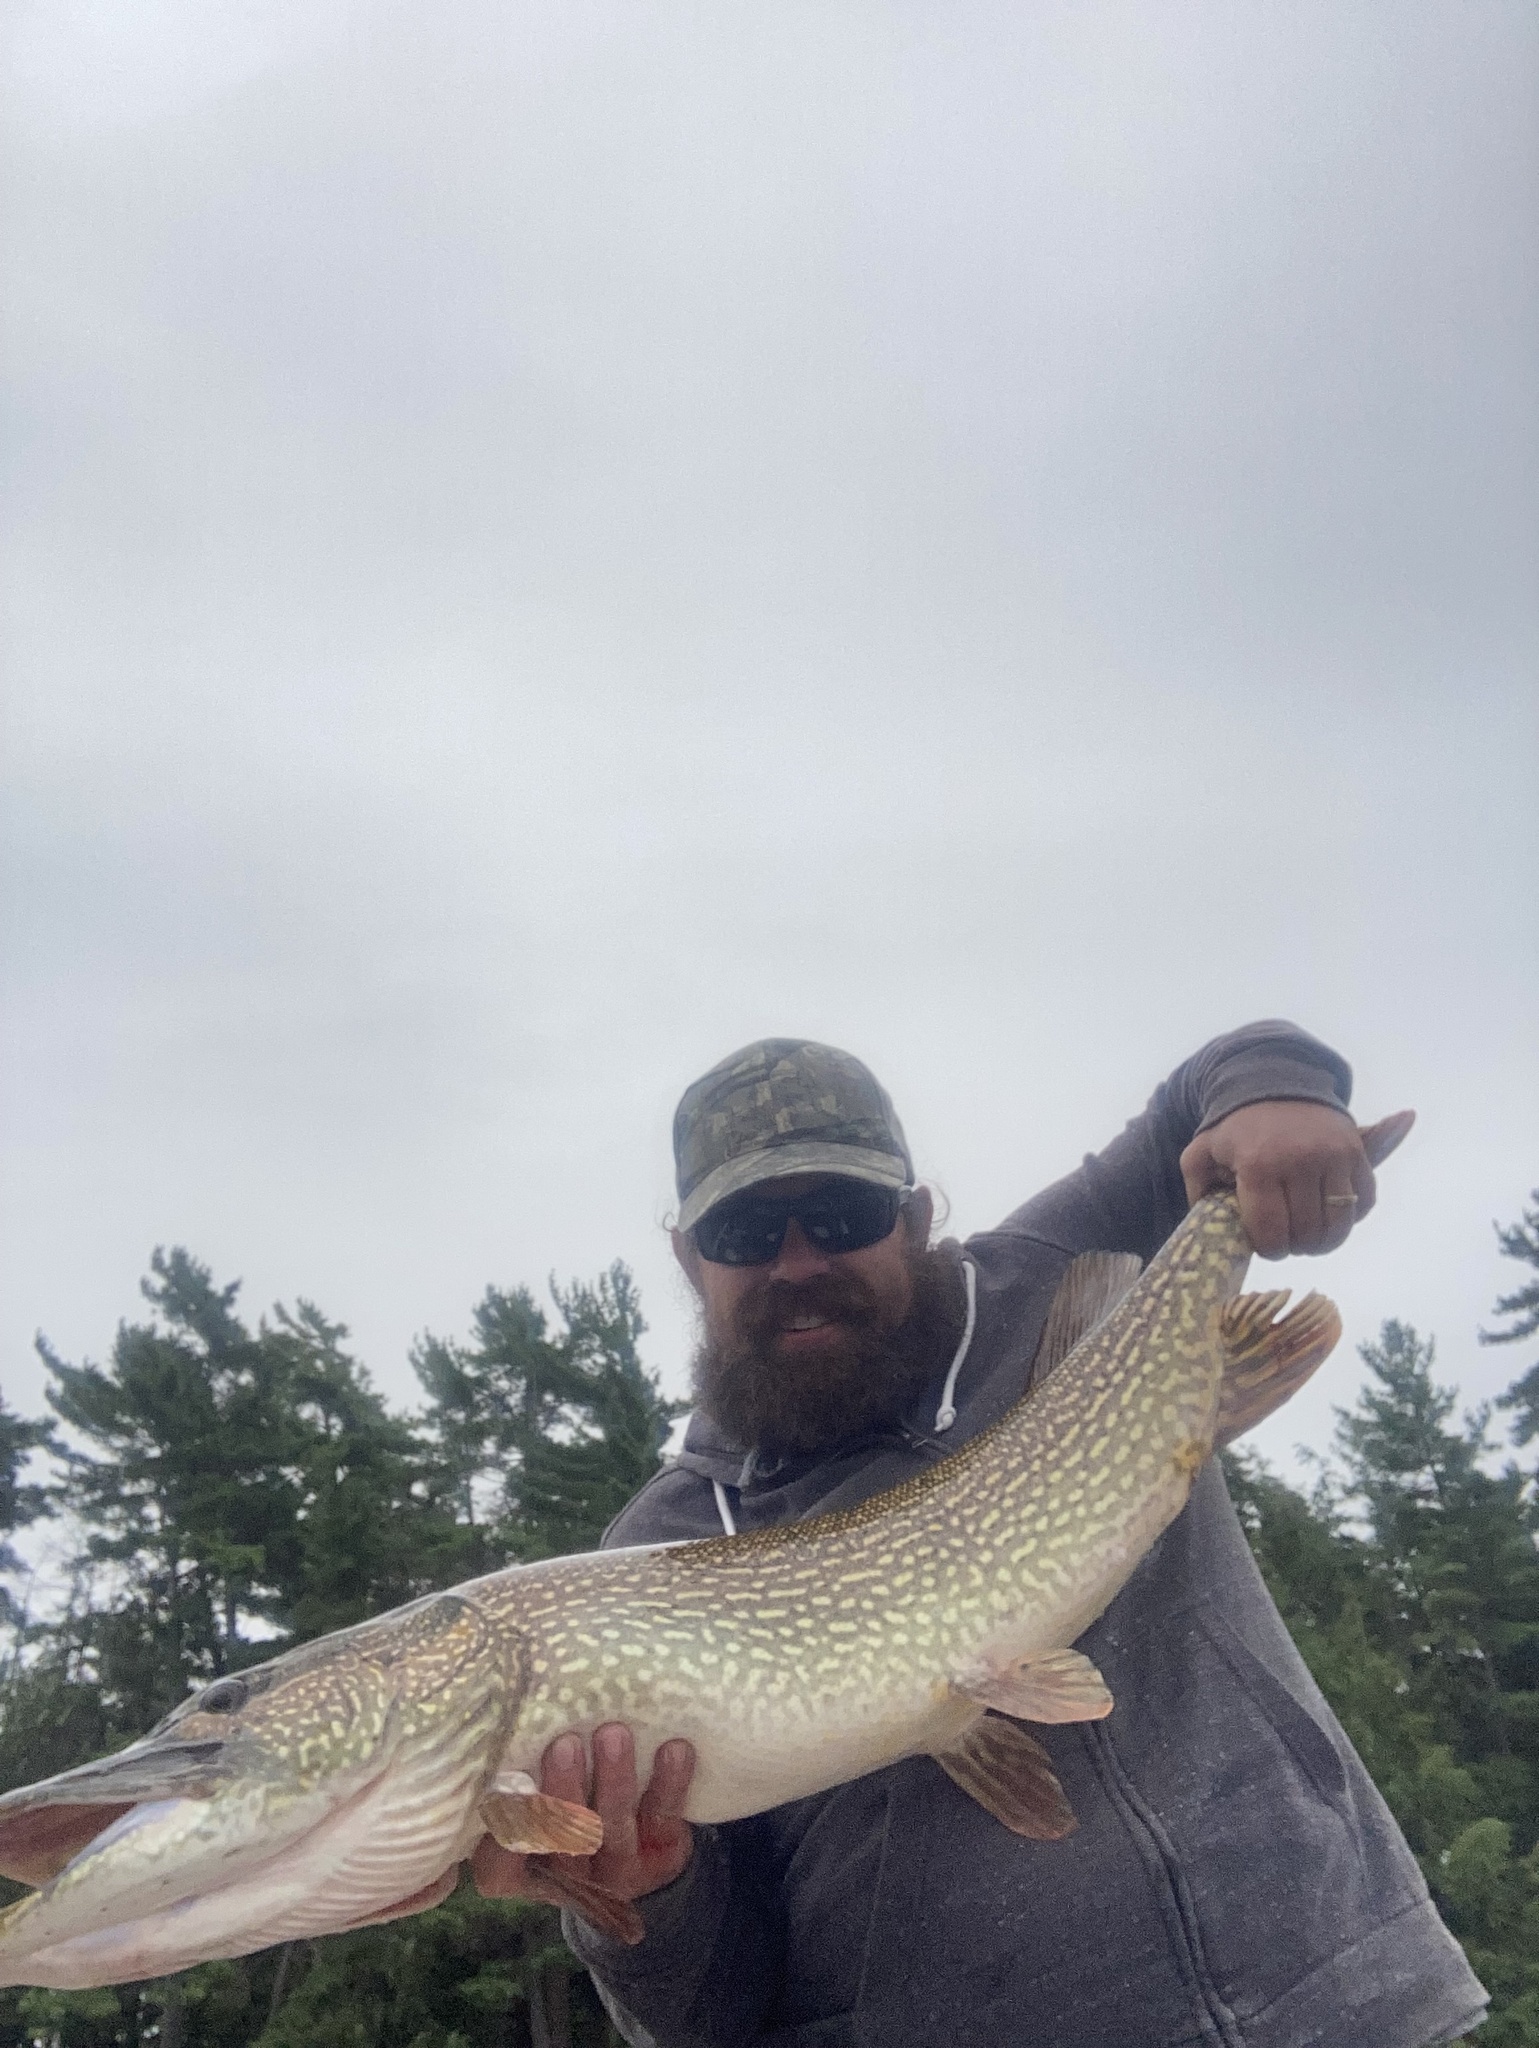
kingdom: Animalia
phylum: Chordata
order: Esociformes
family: Esocidae
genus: Esox
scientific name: Esox lucius
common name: Northern pike
